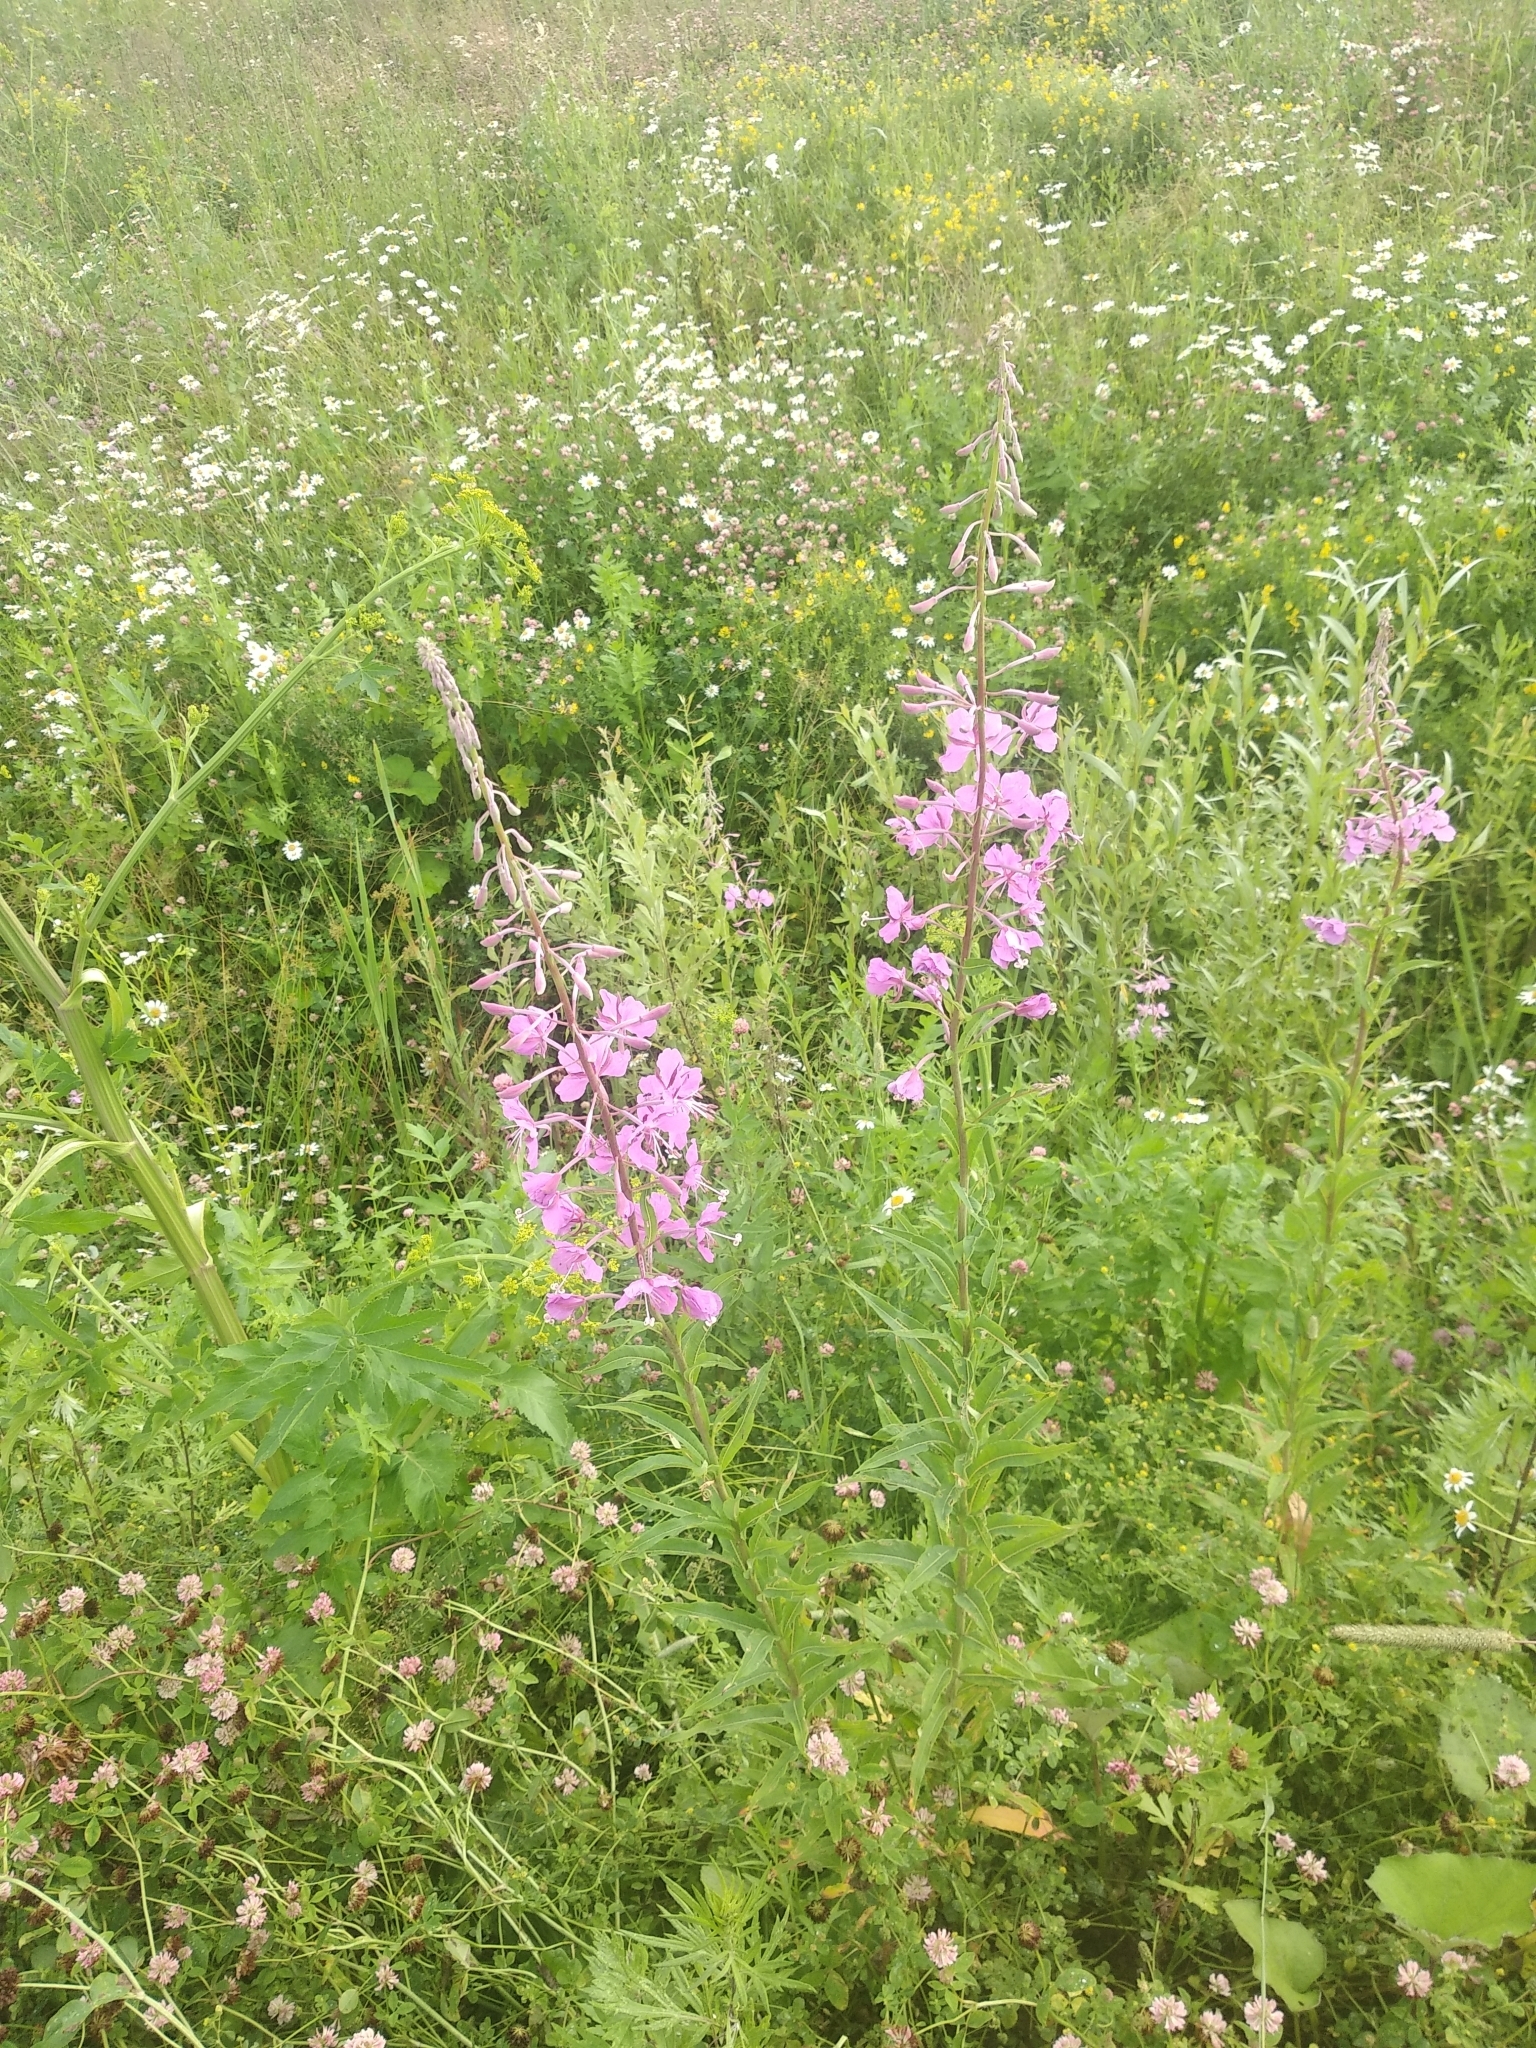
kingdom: Plantae
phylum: Tracheophyta
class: Magnoliopsida
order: Myrtales
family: Onagraceae
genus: Chamaenerion
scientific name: Chamaenerion angustifolium
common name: Fireweed
